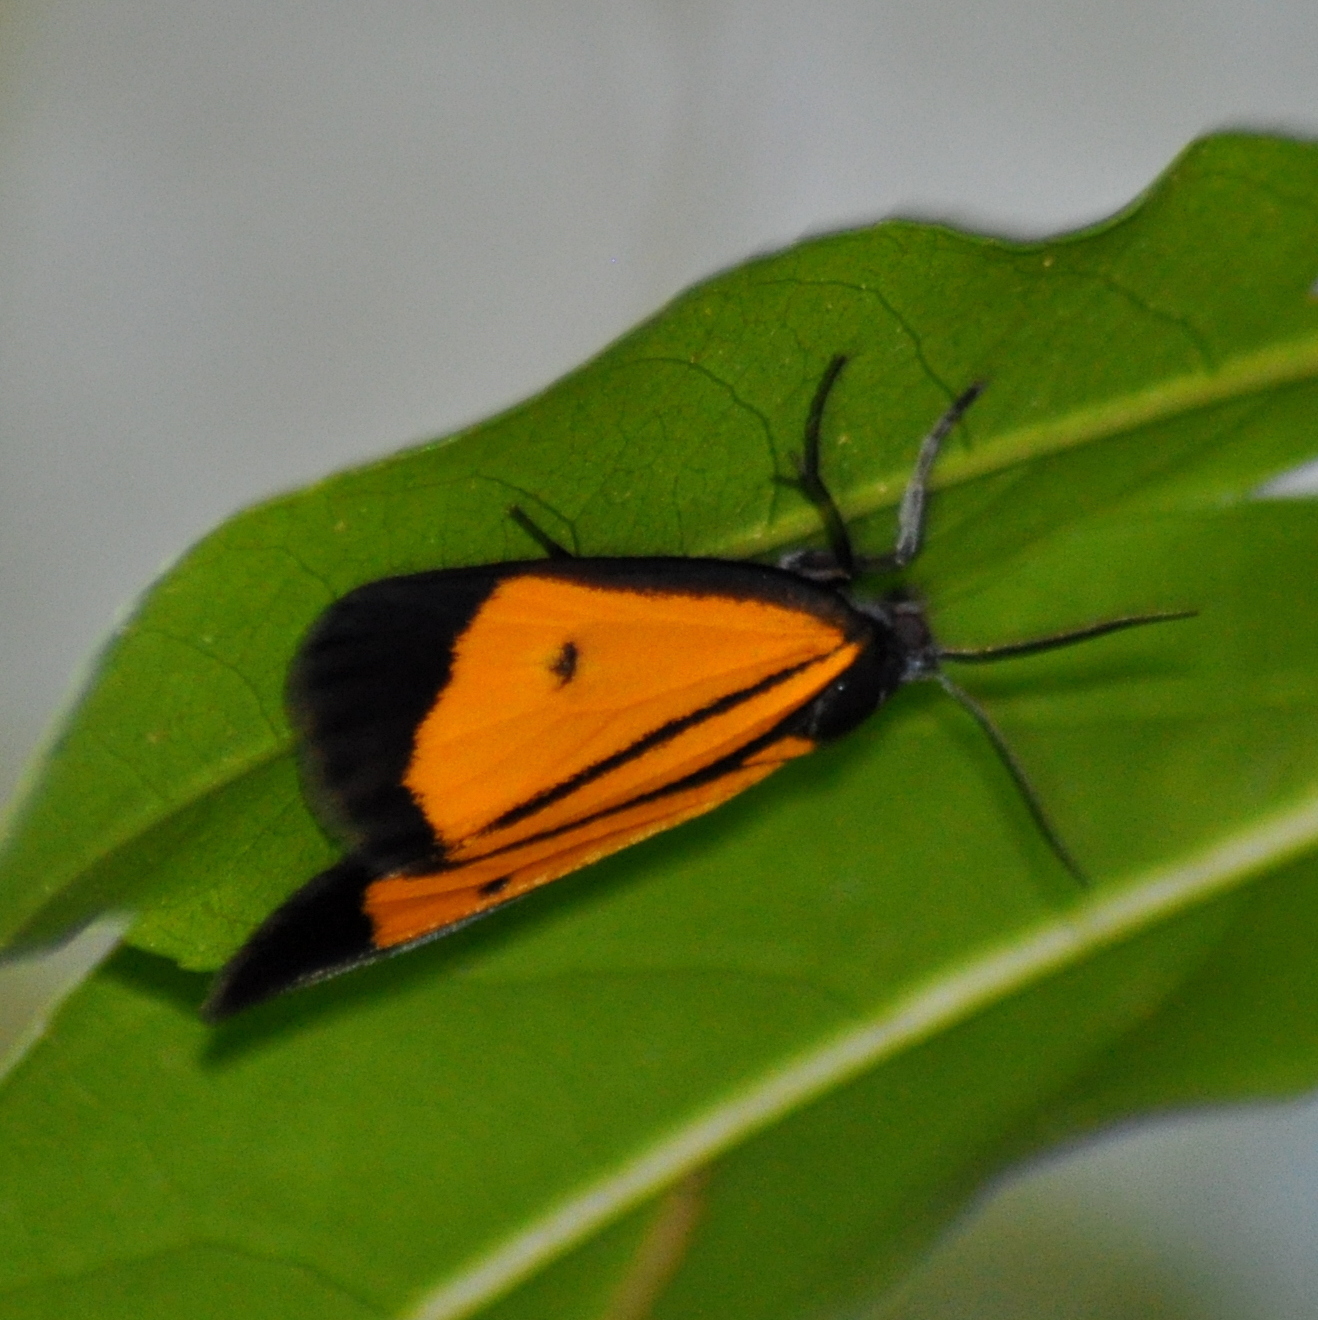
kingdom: Animalia
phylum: Arthropoda
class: Insecta
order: Lepidoptera
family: Erebidae
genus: Paratype
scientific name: Paratype univitta
